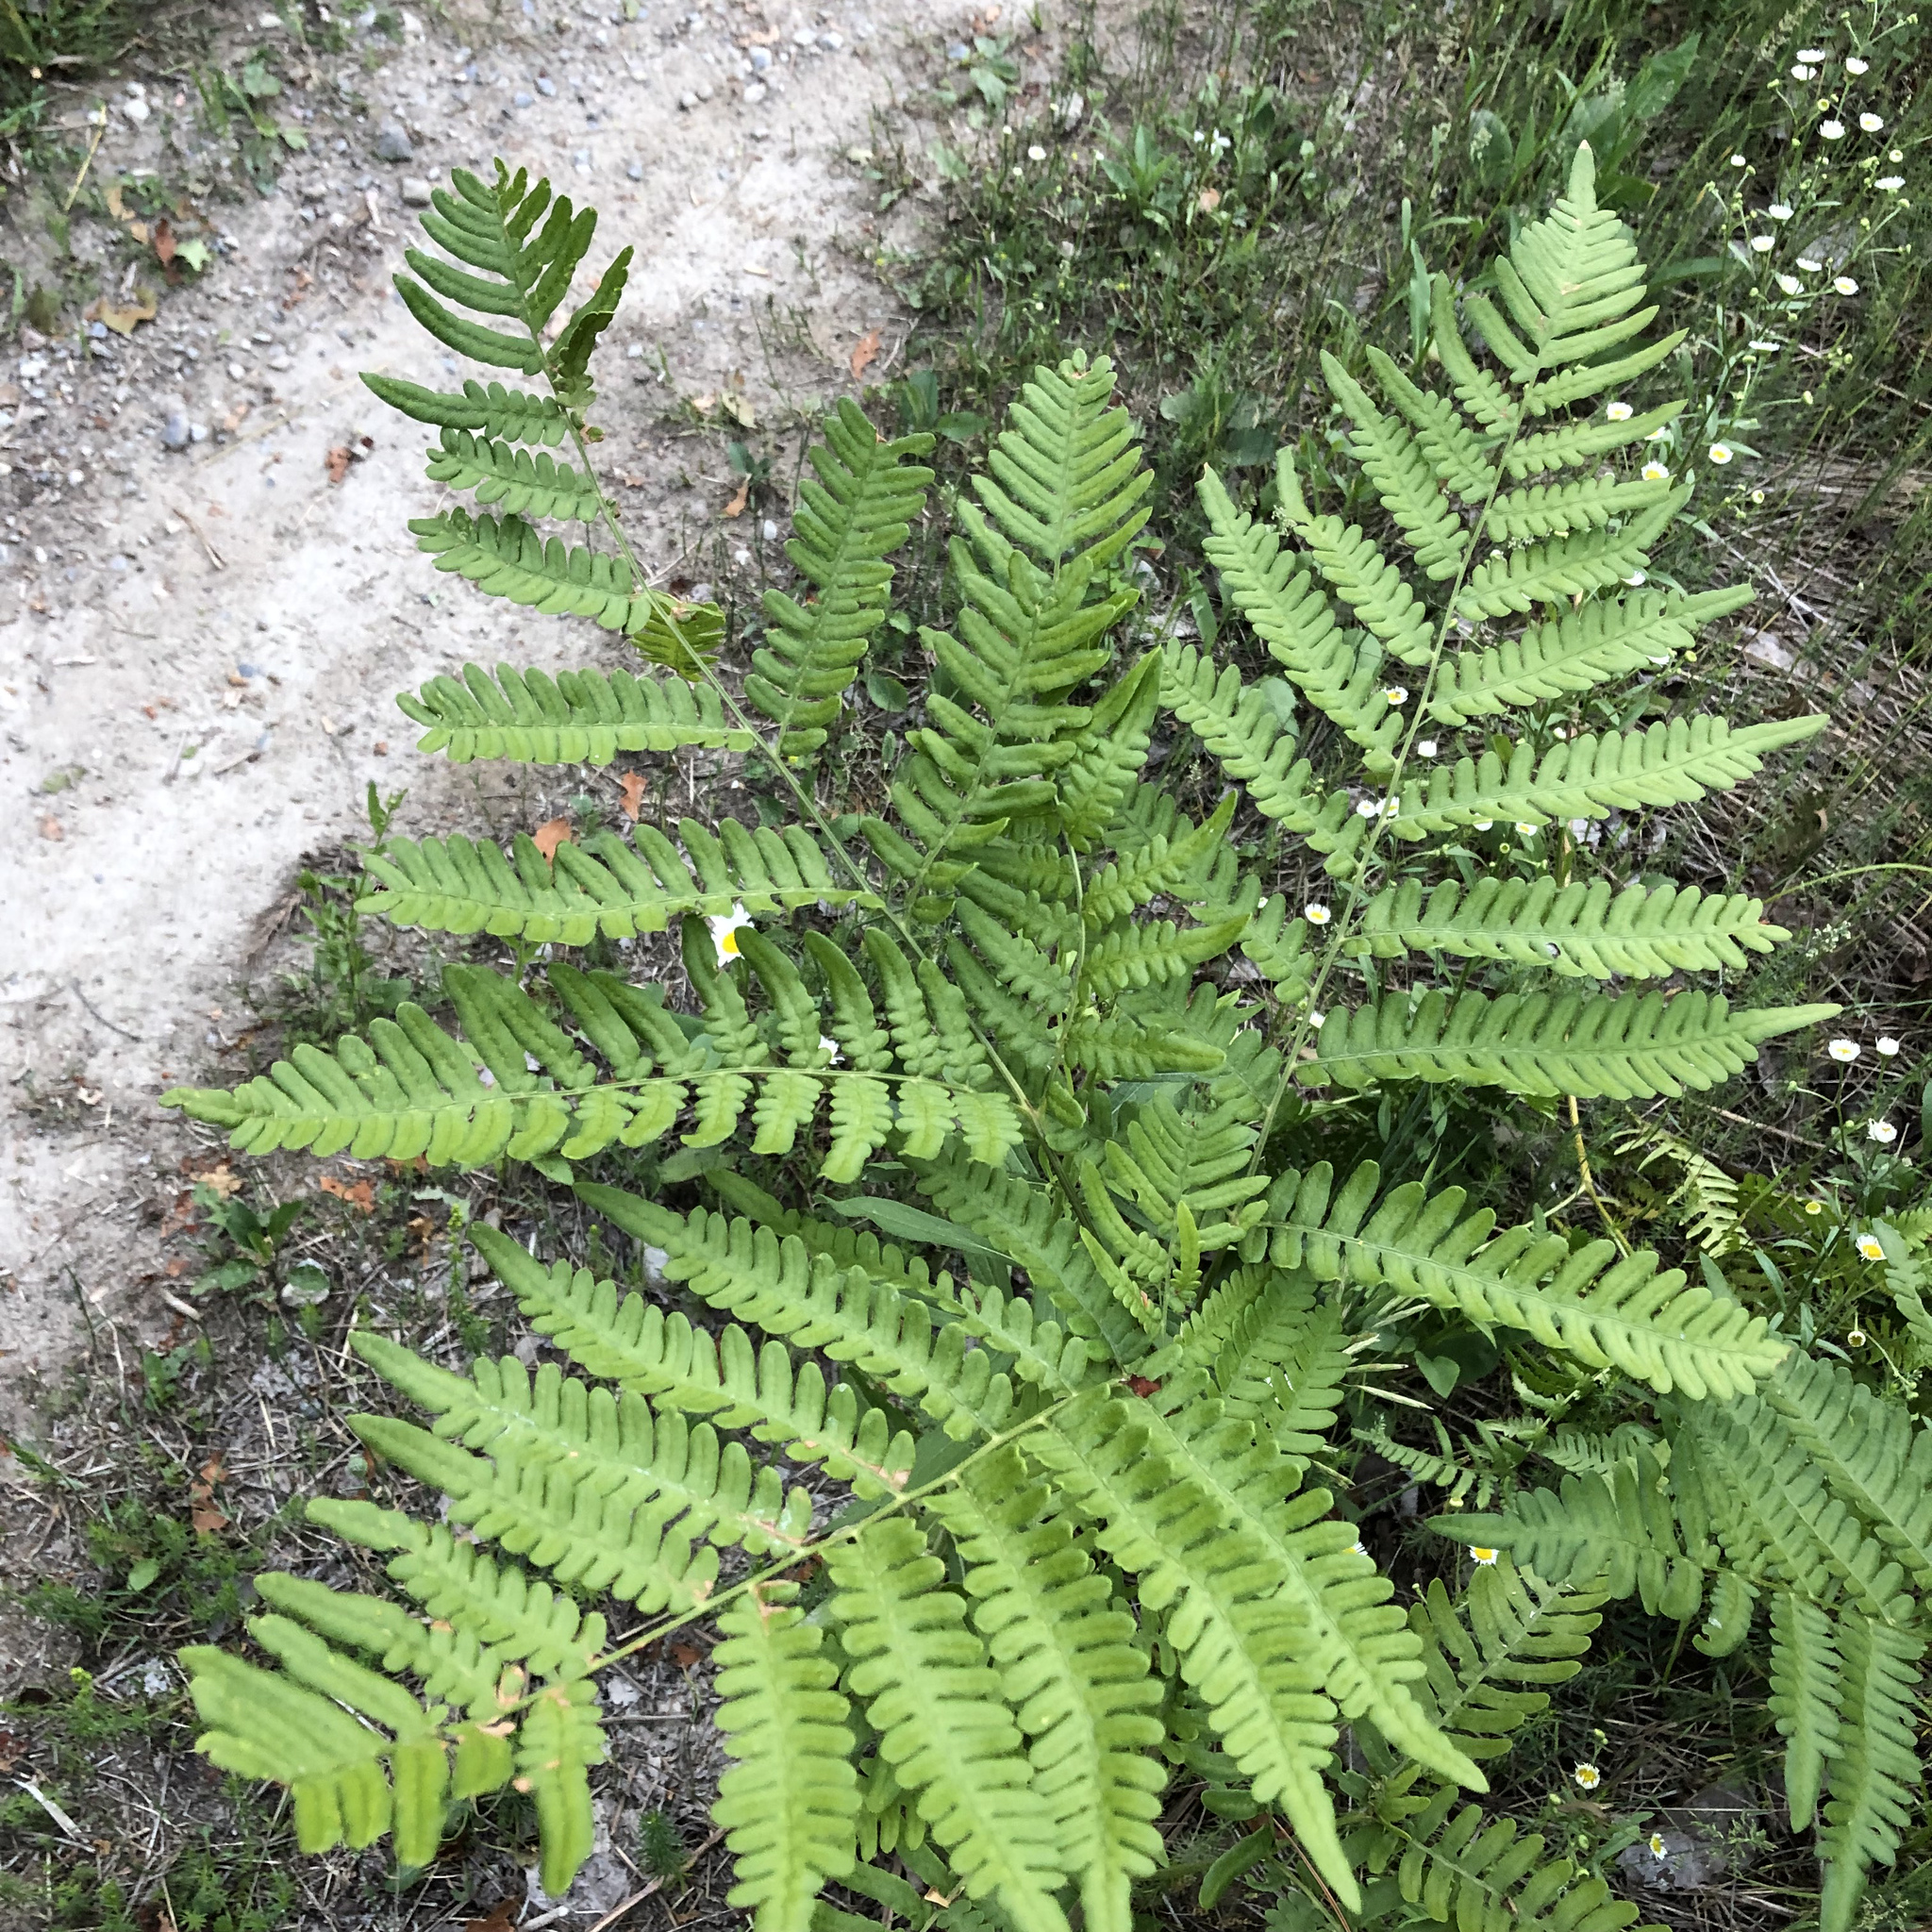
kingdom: Plantae
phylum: Tracheophyta
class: Polypodiopsida
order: Polypodiales
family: Dennstaedtiaceae
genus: Pteridium
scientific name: Pteridium aquilinum
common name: Bracken
